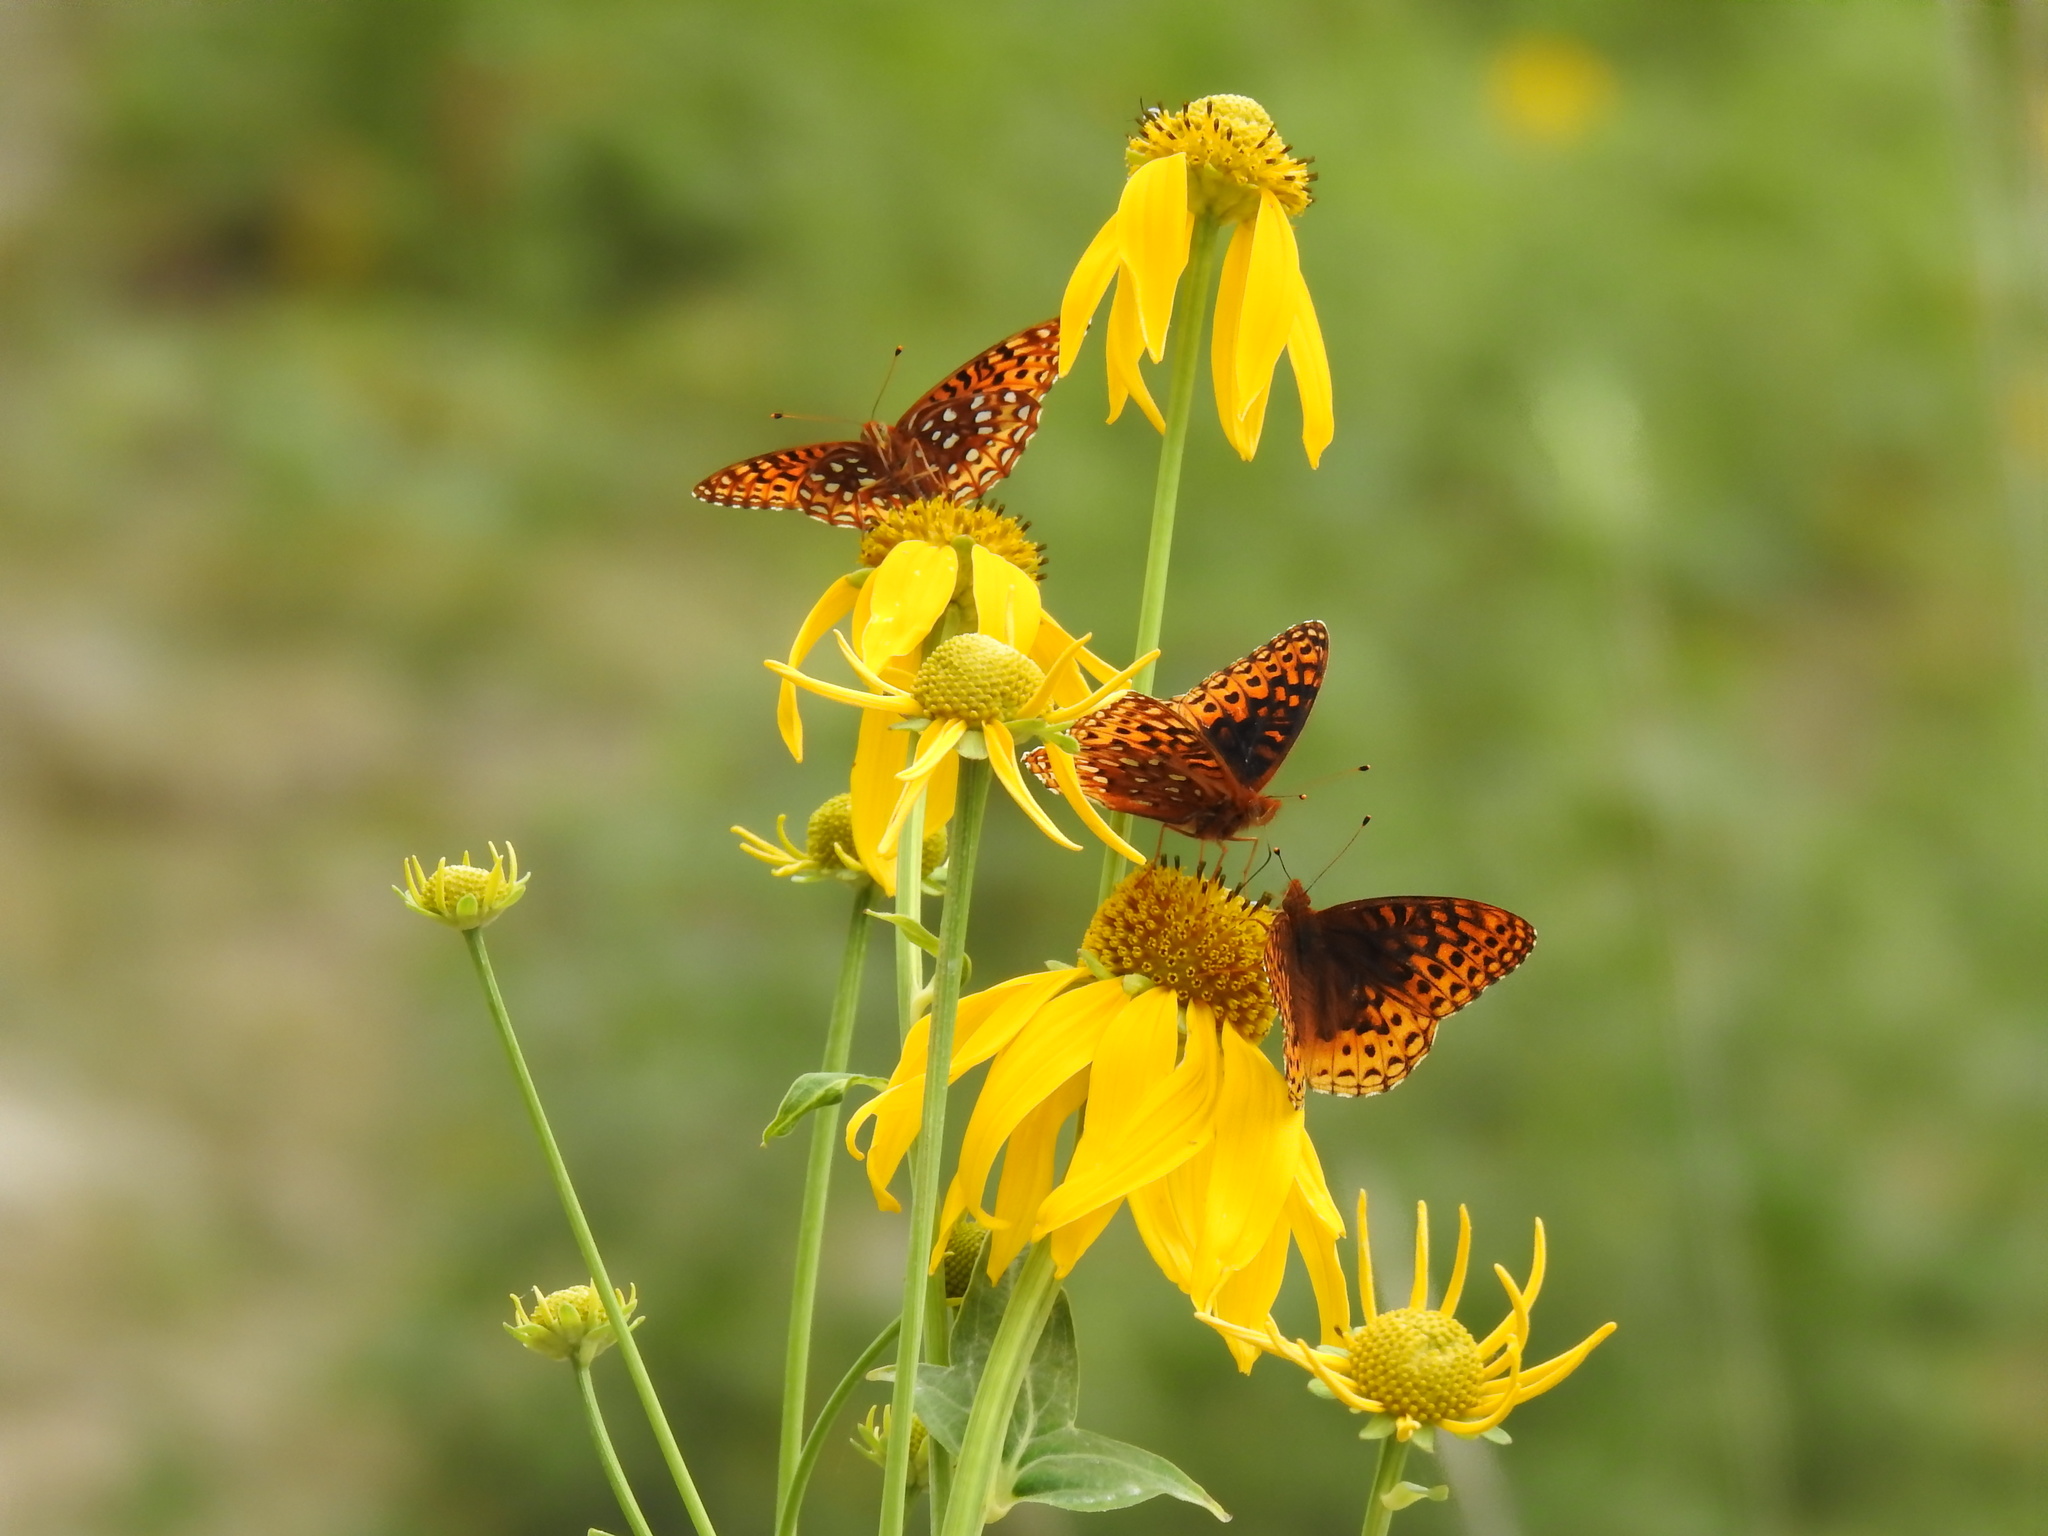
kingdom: Animalia
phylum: Arthropoda
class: Insecta
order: Lepidoptera
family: Nymphalidae
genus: Speyeria
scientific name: Speyeria atlantis
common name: Atlantis fritillary
